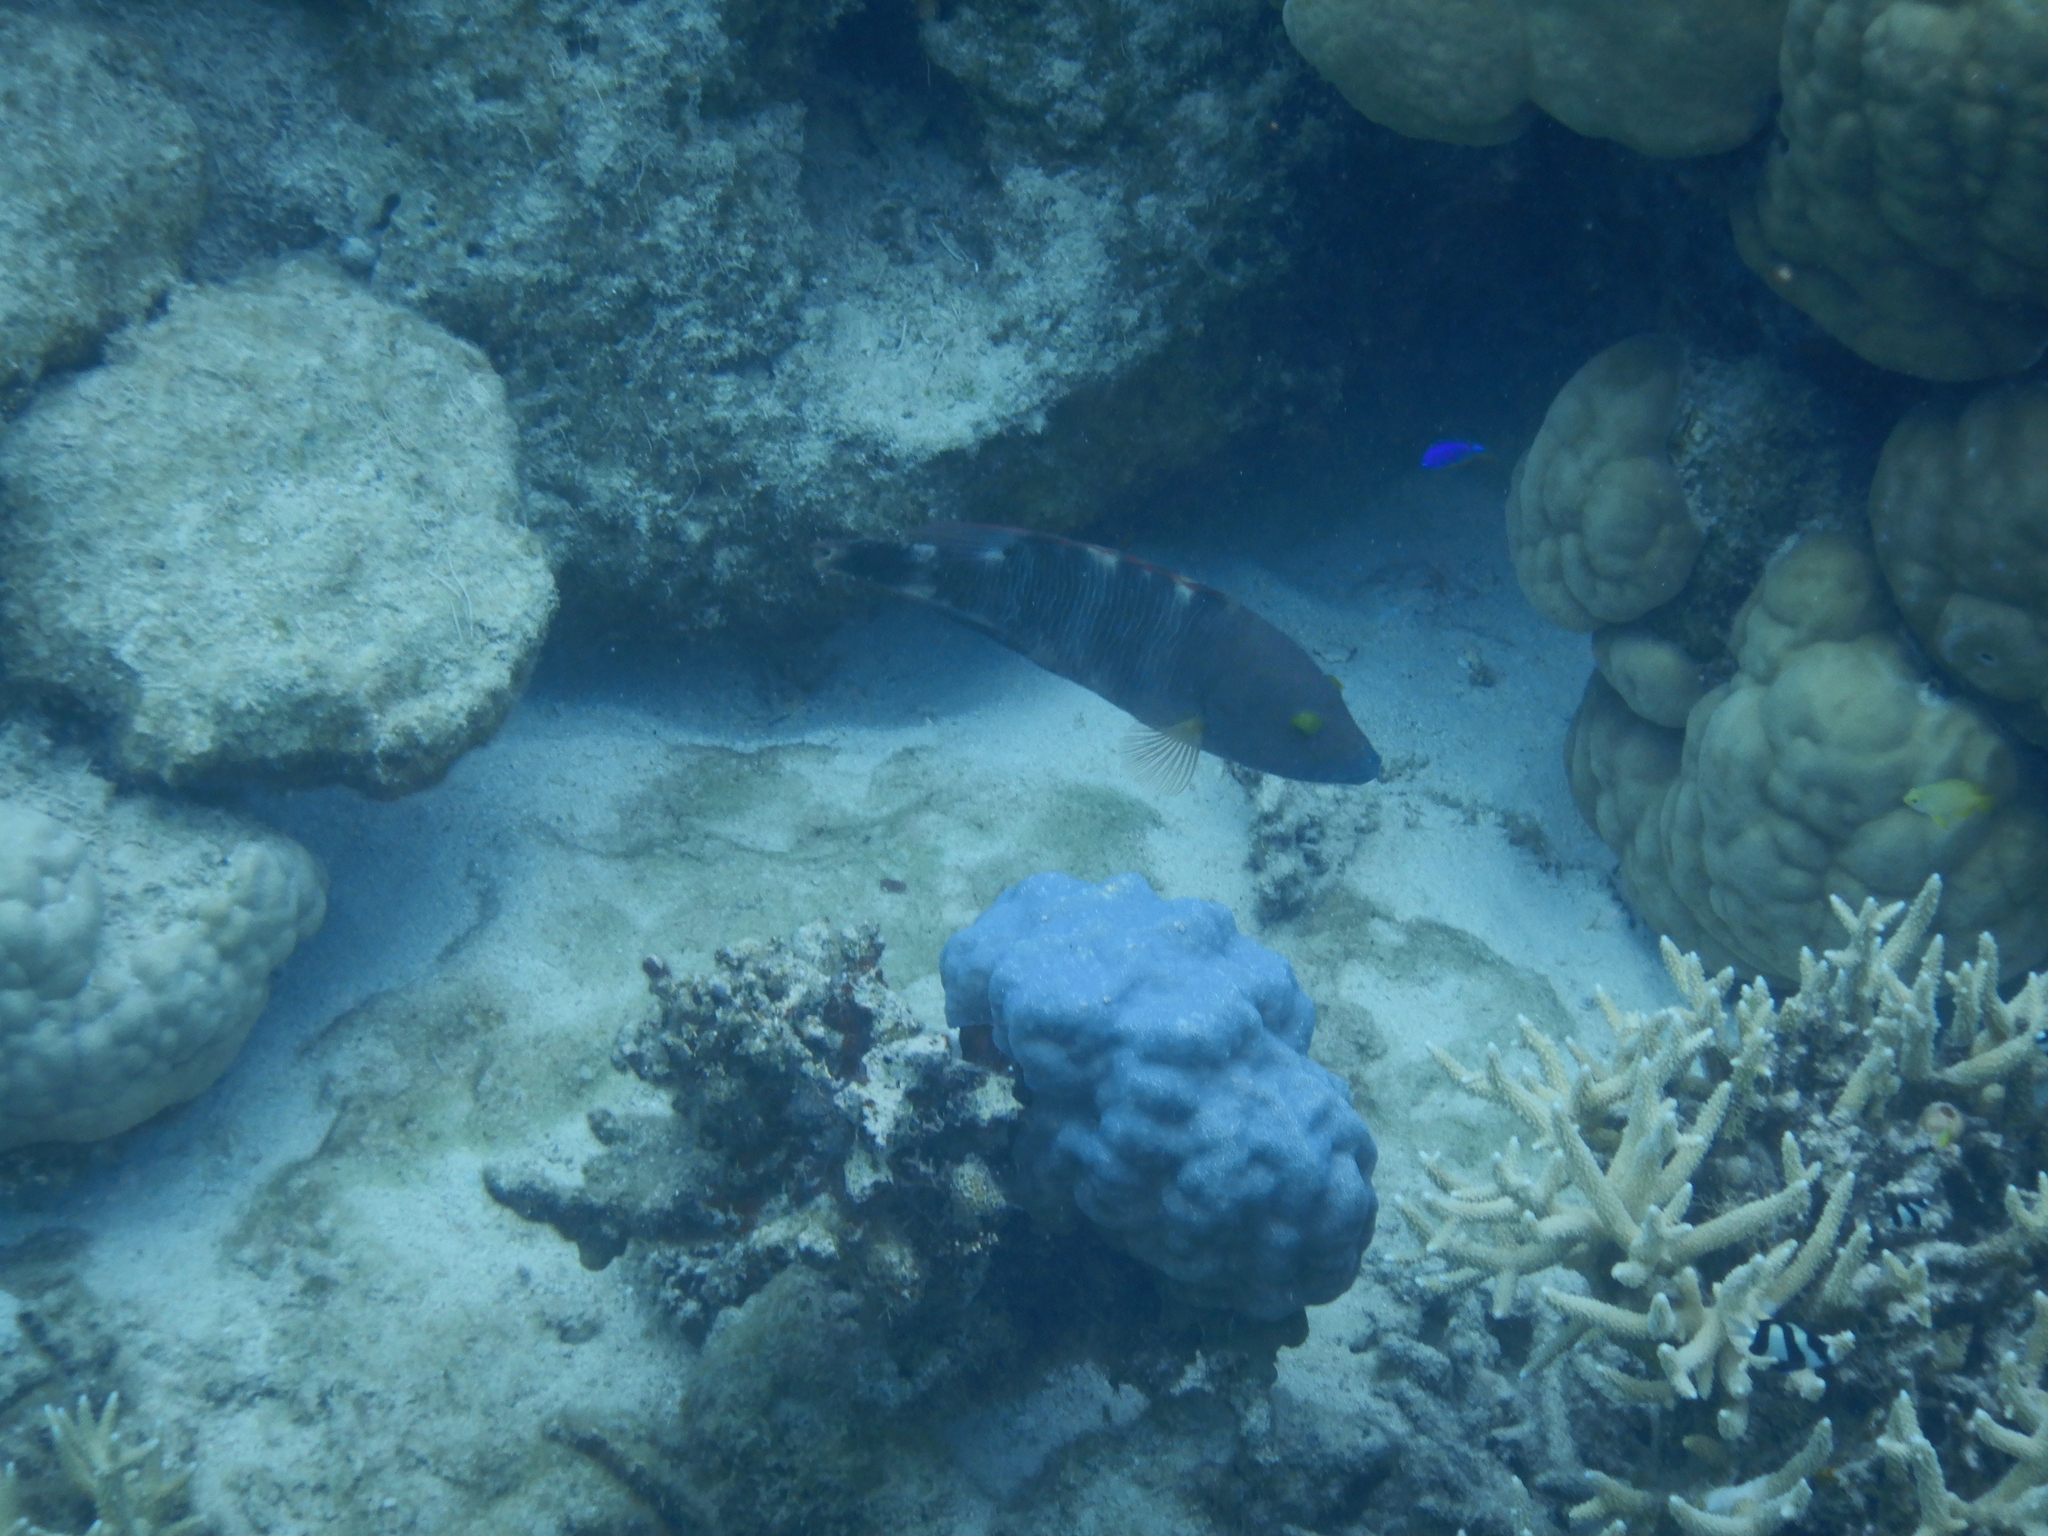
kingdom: Animalia
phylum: Chordata
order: Perciformes
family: Labridae
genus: Cheilinus
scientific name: Cheilinus trilobatus
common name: Tripletail maori wrasse
